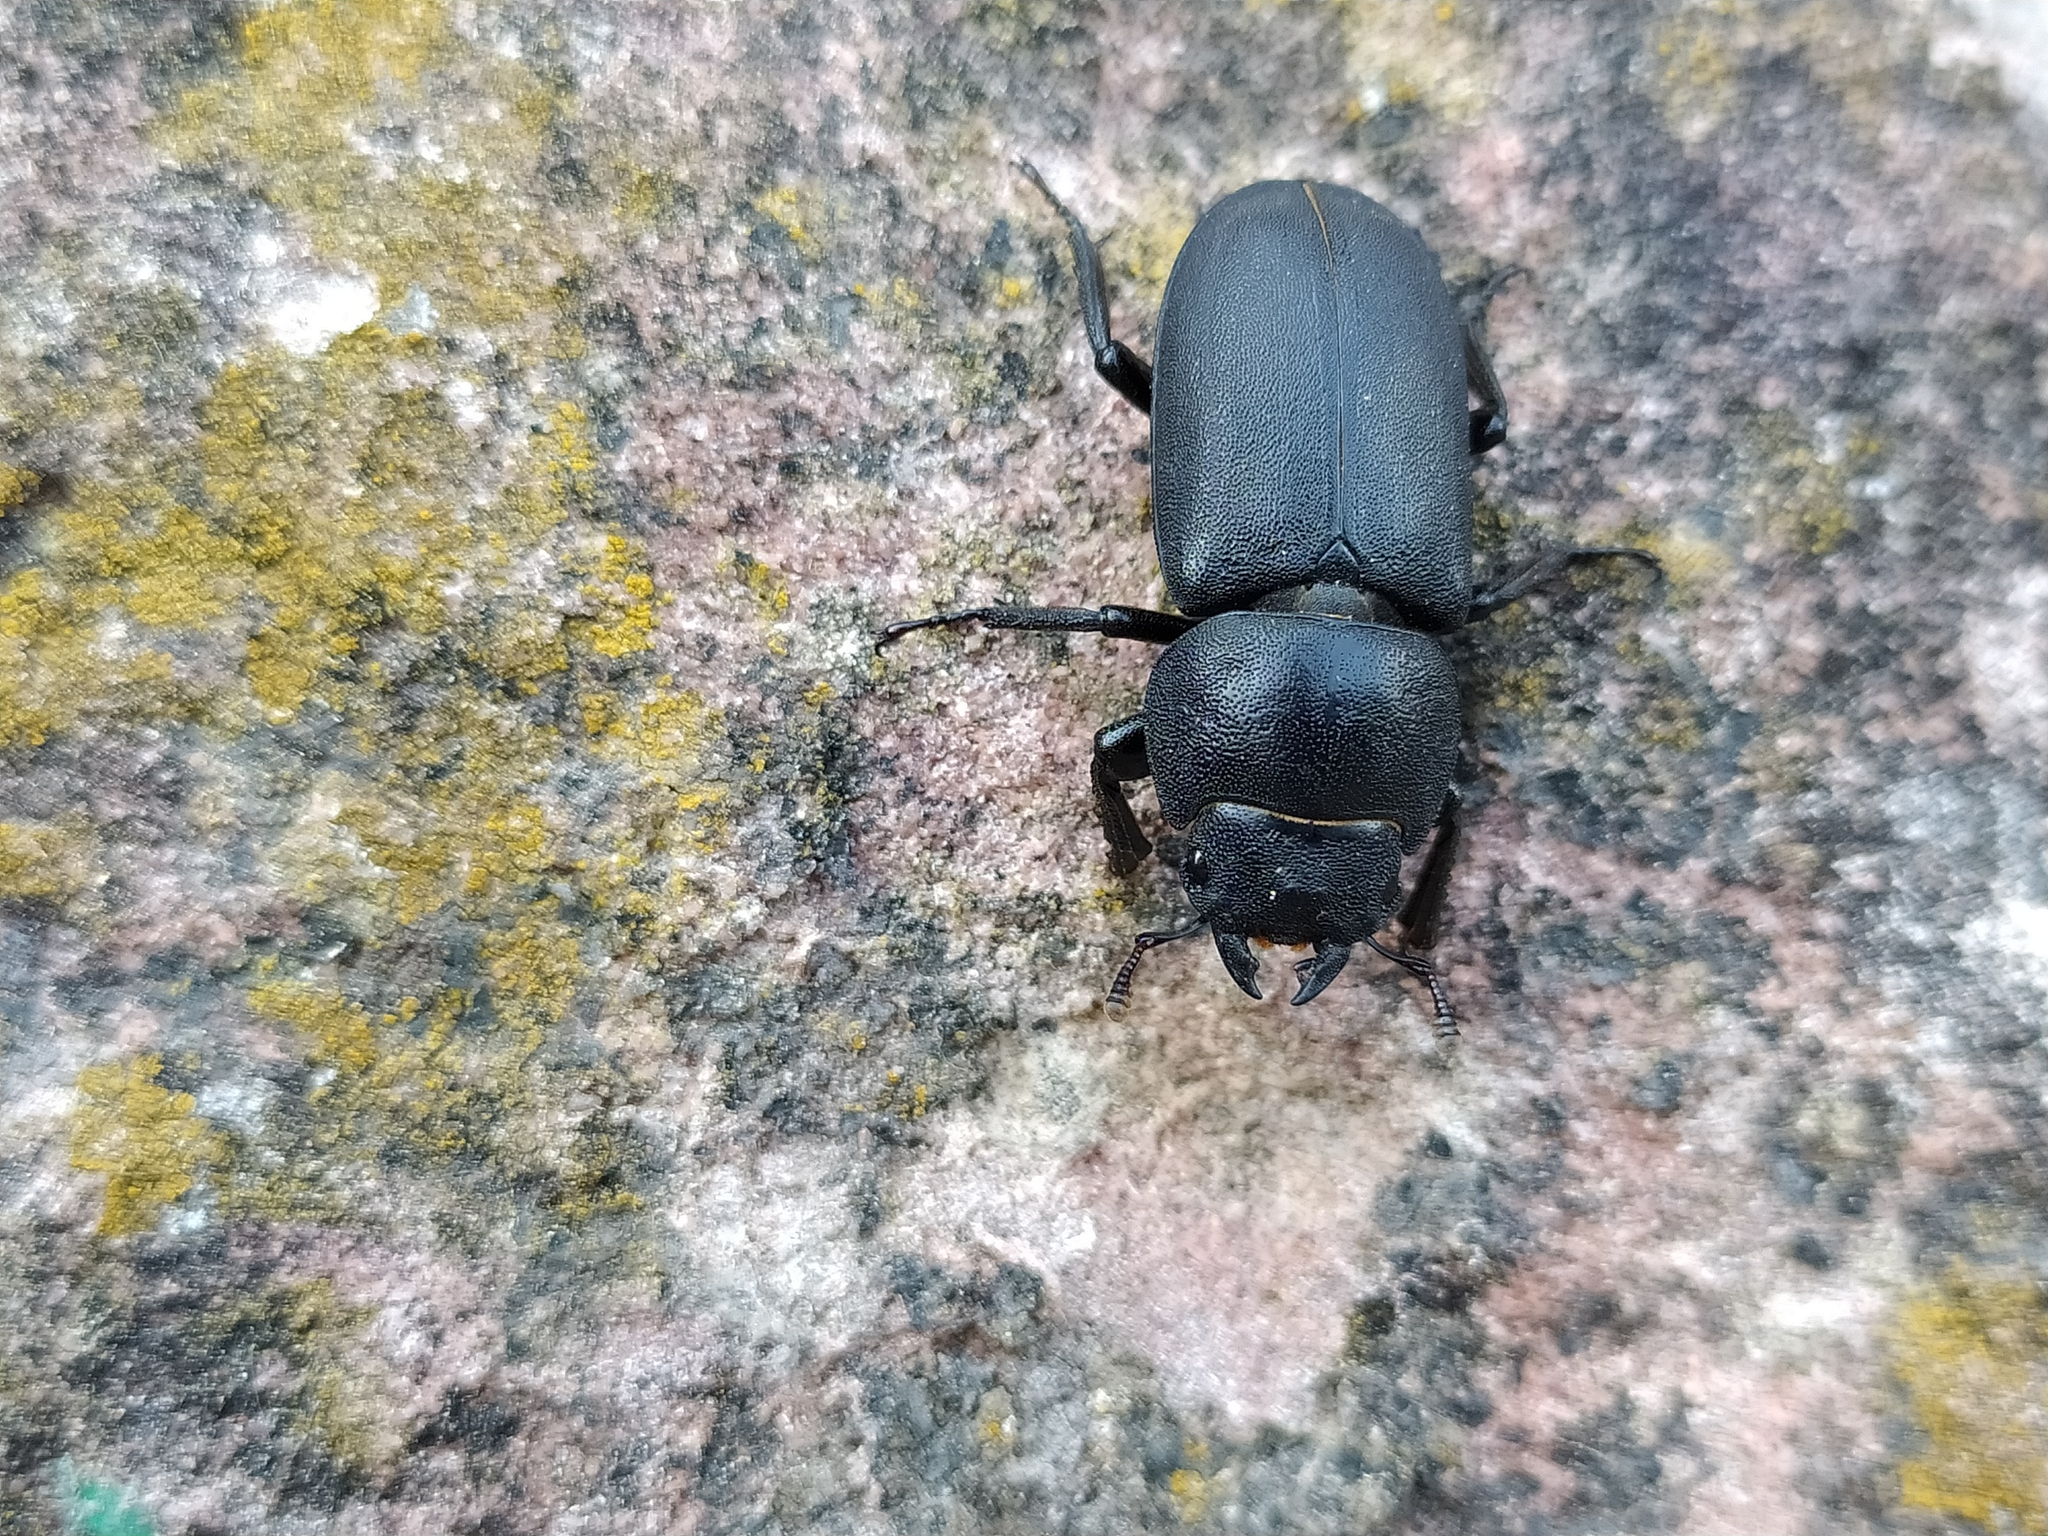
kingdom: Animalia
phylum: Arthropoda
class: Insecta
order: Coleoptera
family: Lucanidae
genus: Dorcus
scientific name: Dorcus parallelipipedus
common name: Lesser stag beetle
